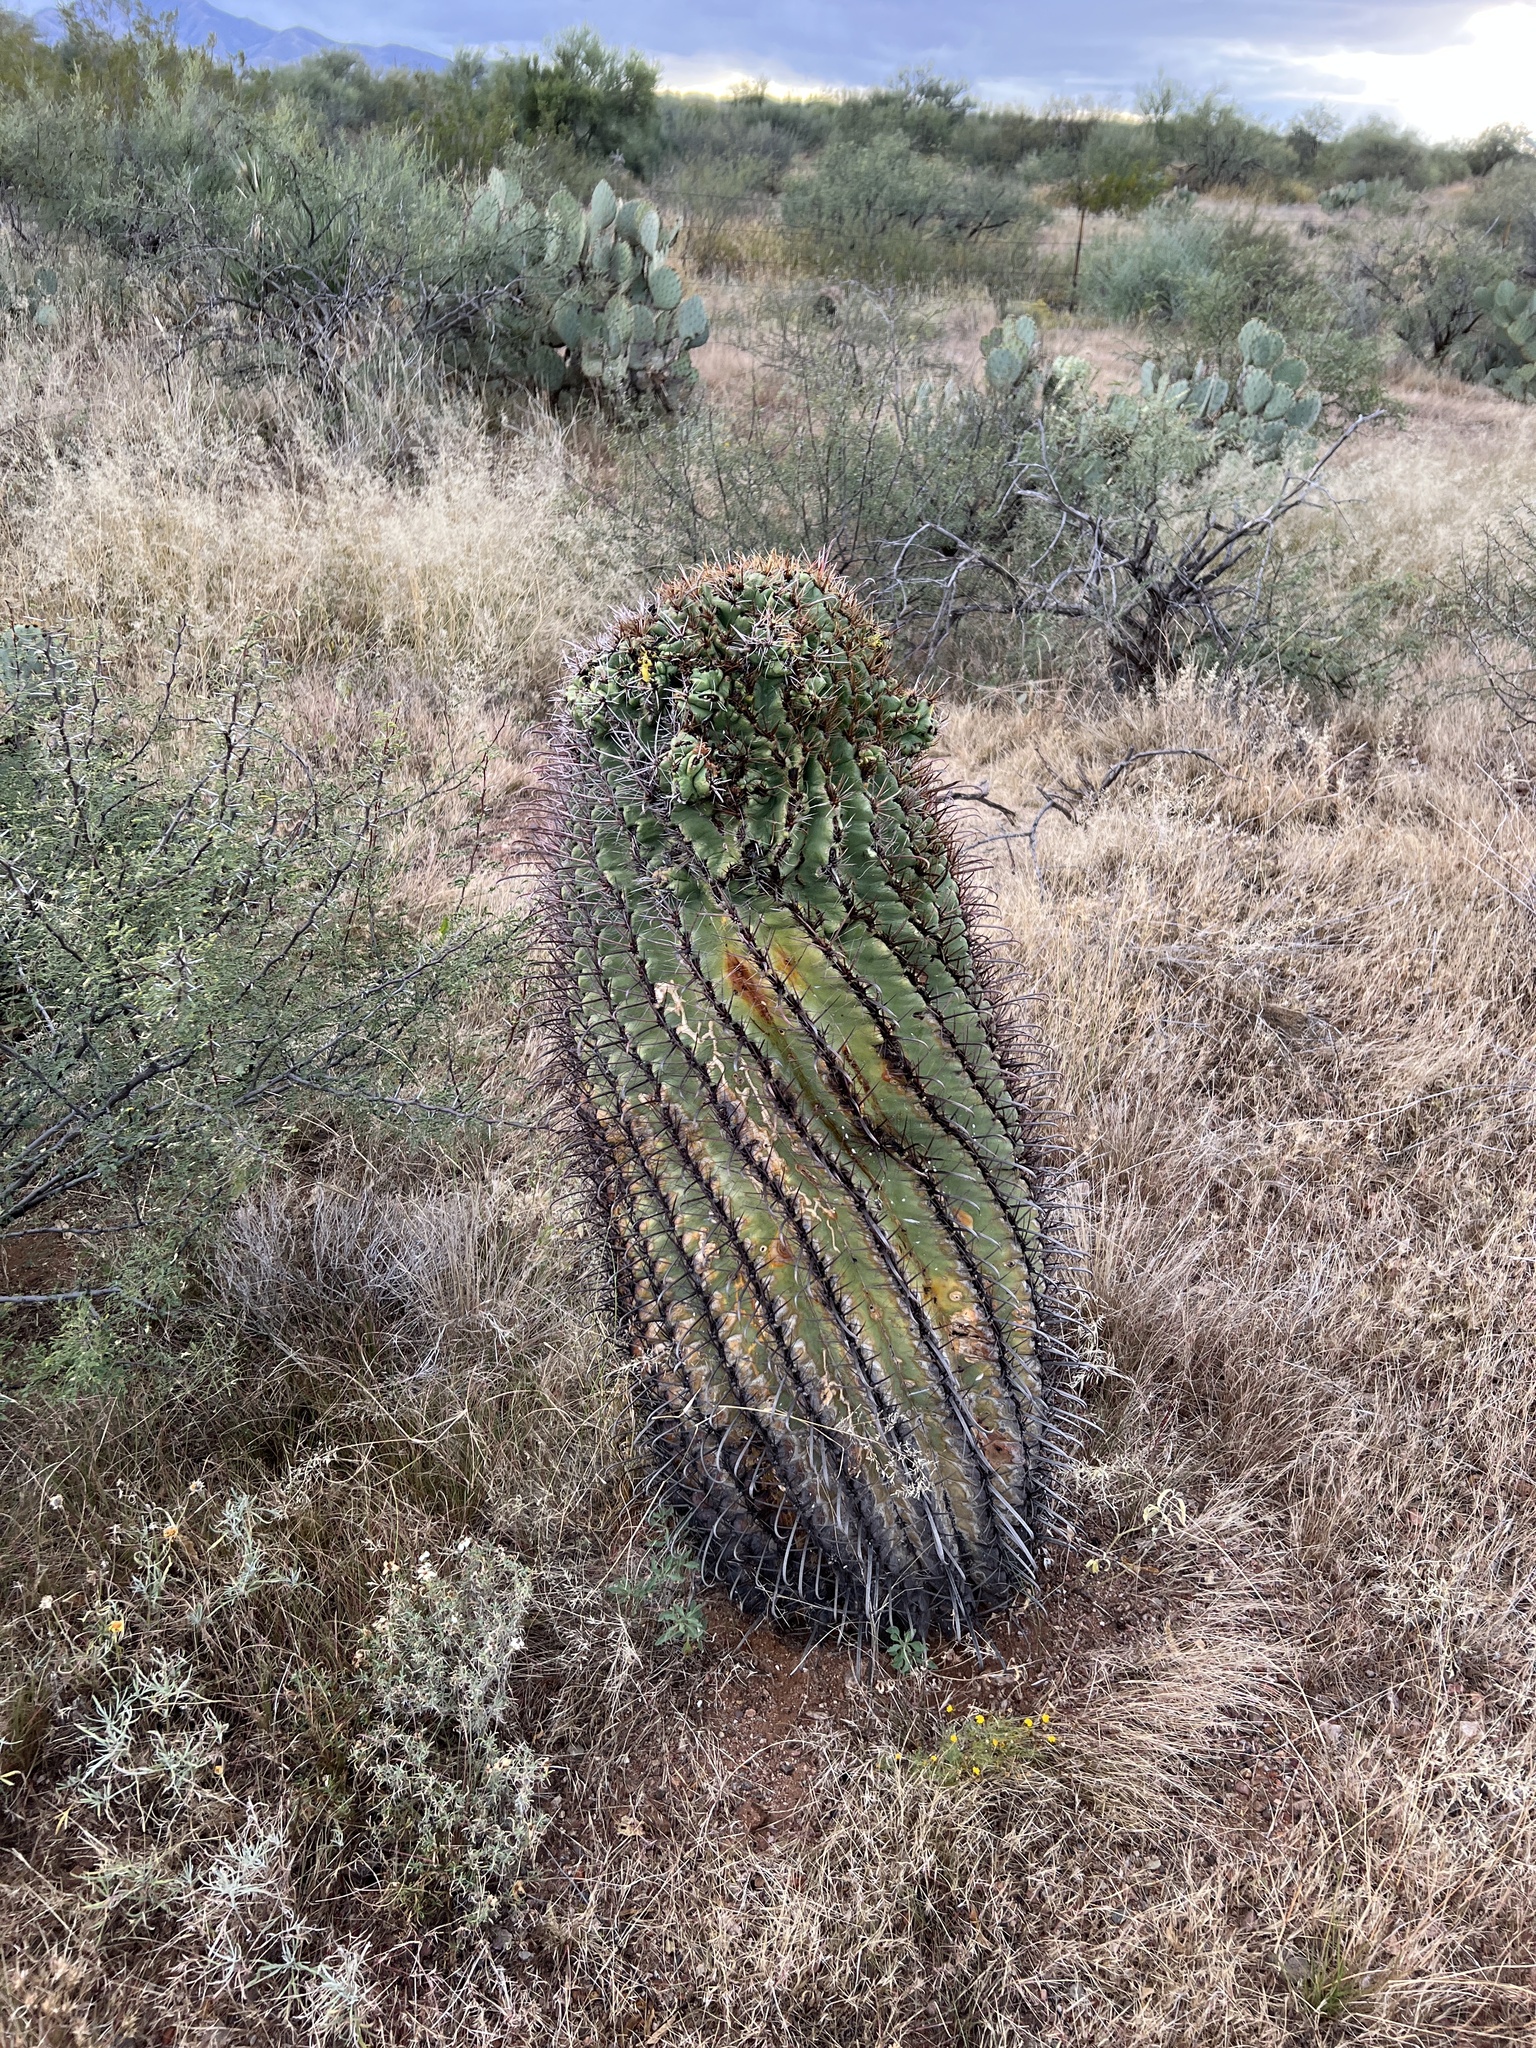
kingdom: Plantae
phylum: Tracheophyta
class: Magnoliopsida
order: Caryophyllales
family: Cactaceae
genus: Ferocactus
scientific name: Ferocactus wislizeni
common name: Candy barrel cactus
